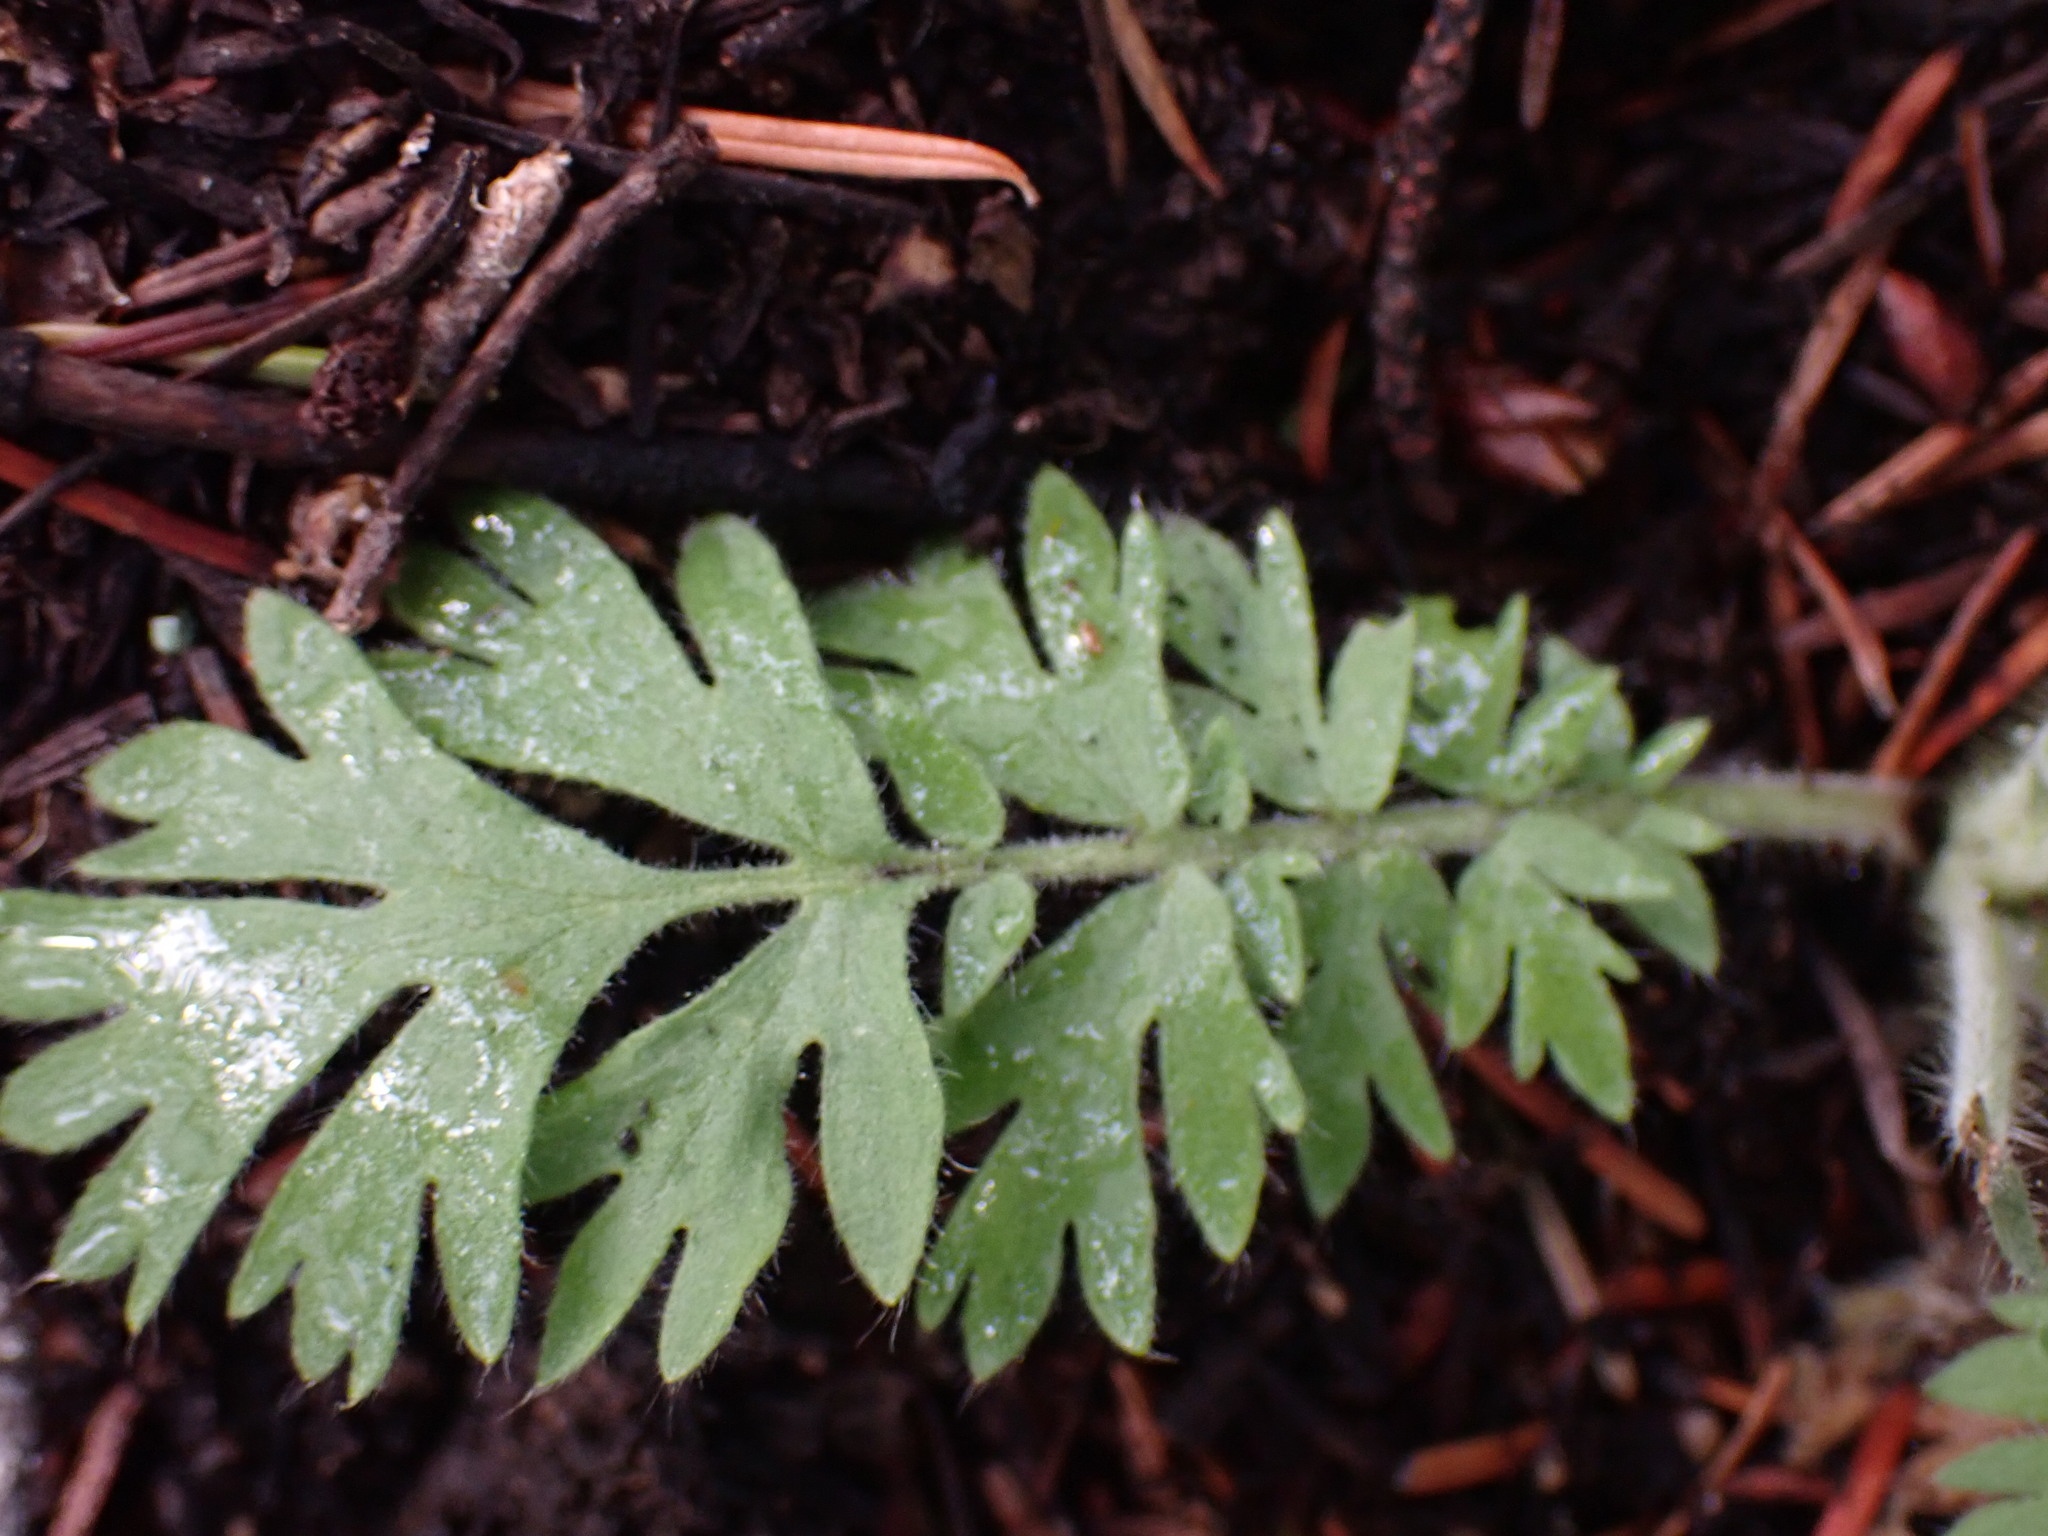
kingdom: Plantae
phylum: Tracheophyta
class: Magnoliopsida
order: Rosales
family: Rosaceae
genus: Geum
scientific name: Geum triflorum
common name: Old man's whiskers
